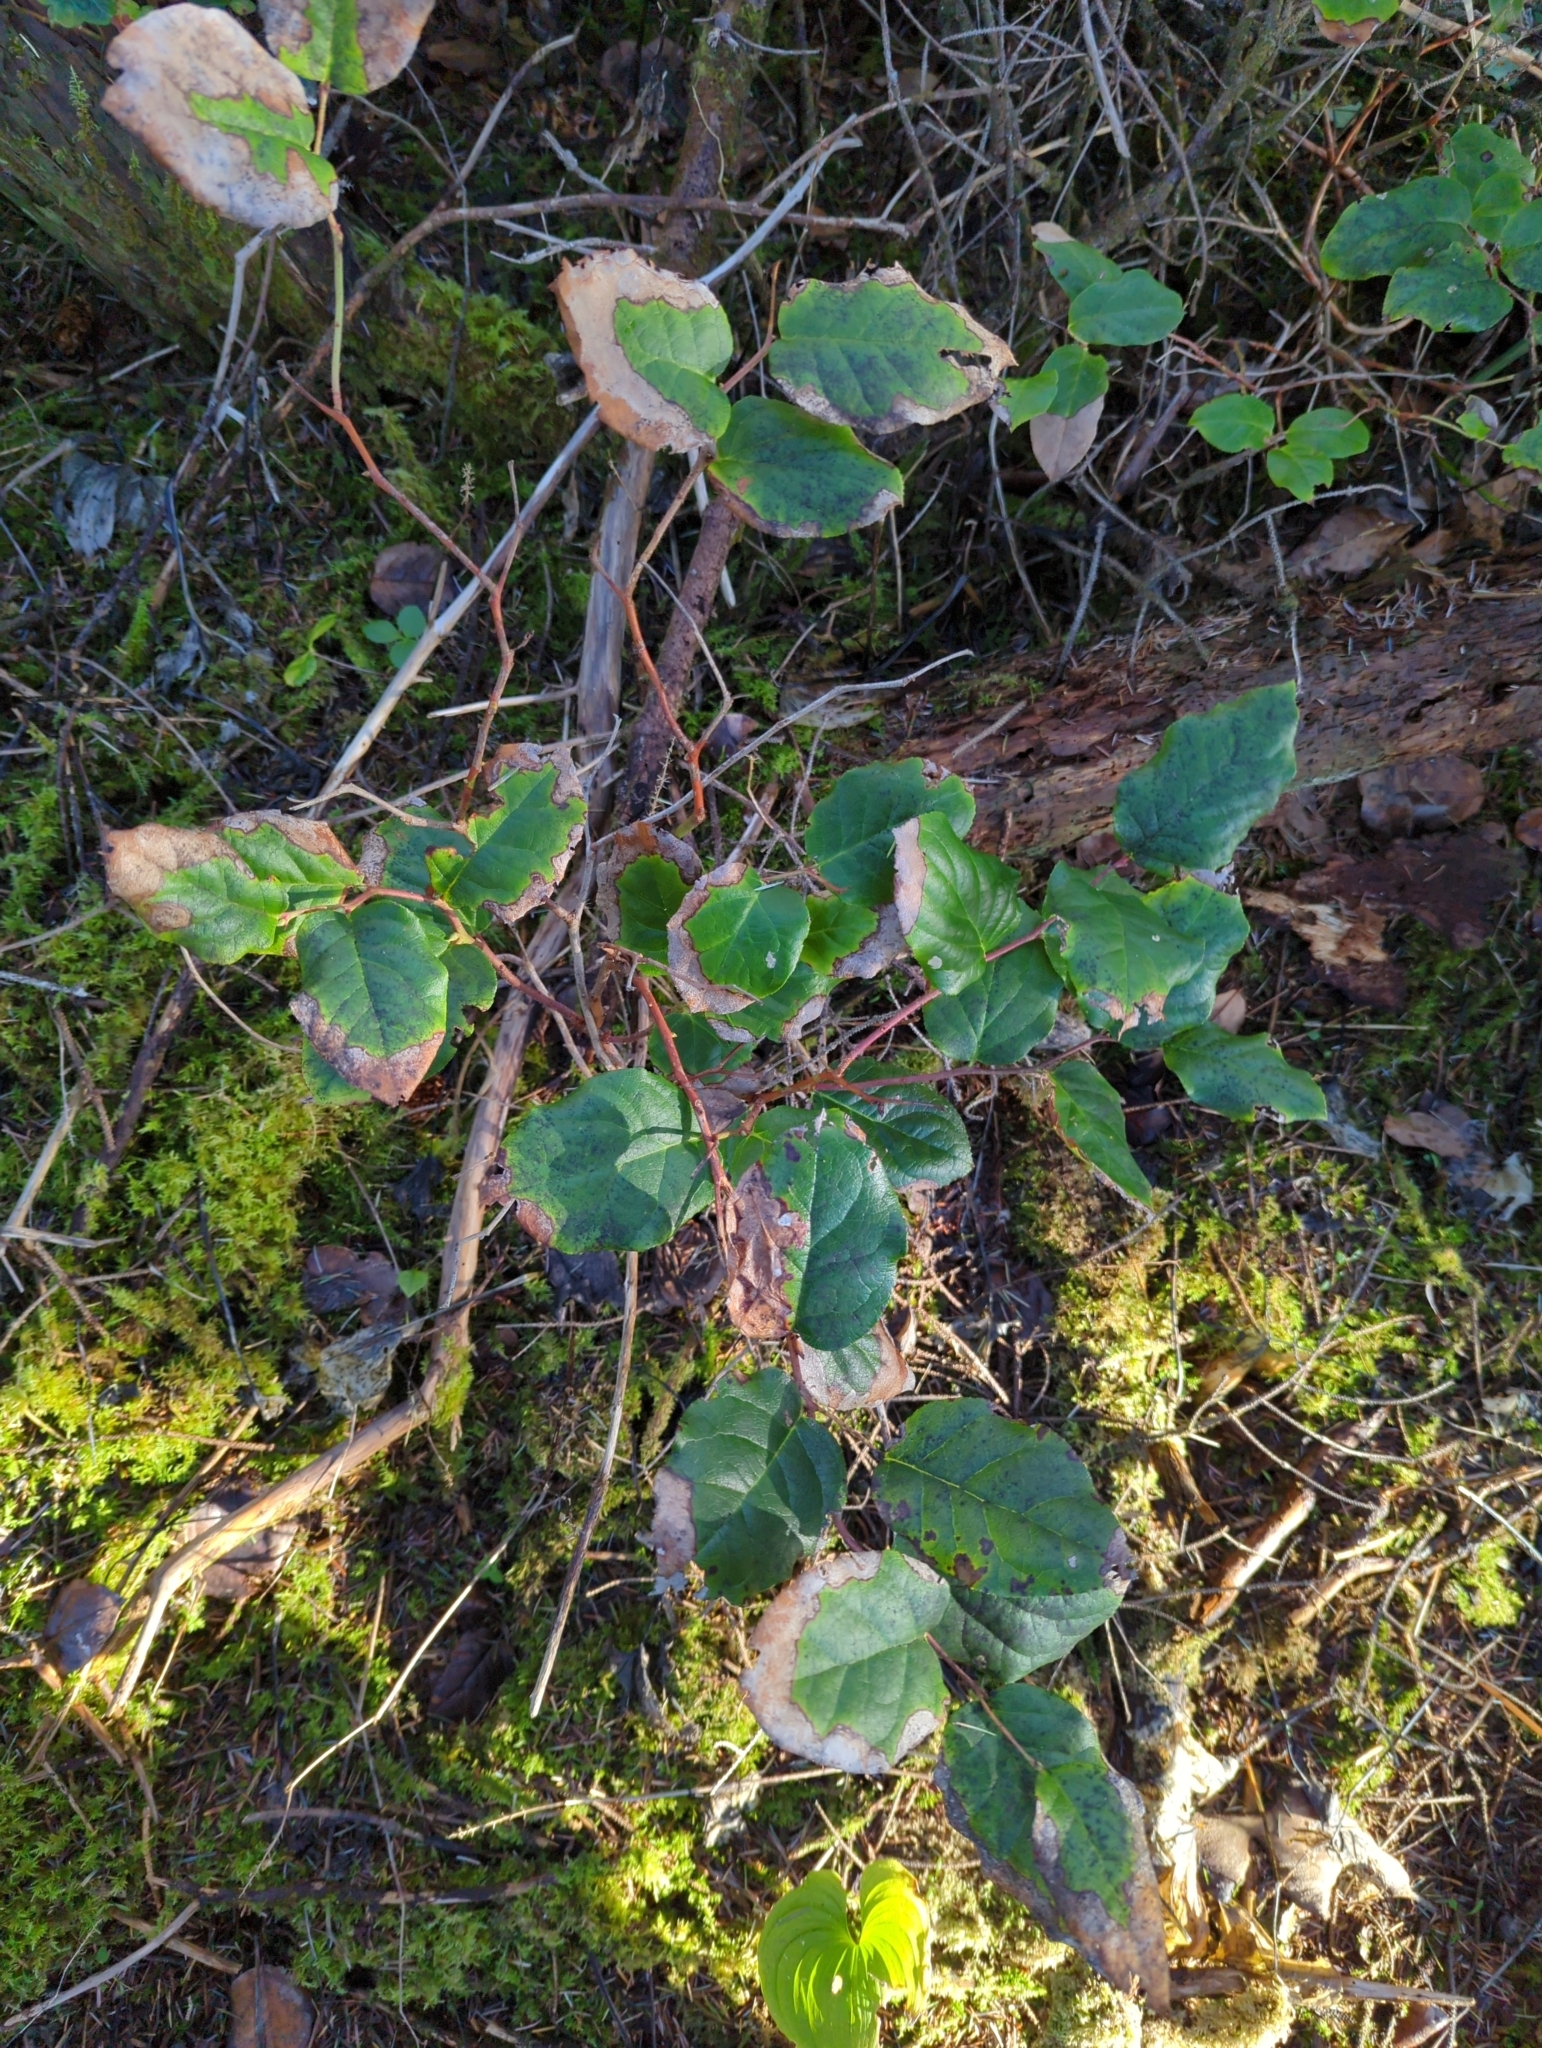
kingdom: Plantae
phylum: Tracheophyta
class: Magnoliopsida
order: Ericales
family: Ericaceae
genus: Gaultheria
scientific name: Gaultheria shallon
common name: Shallon
